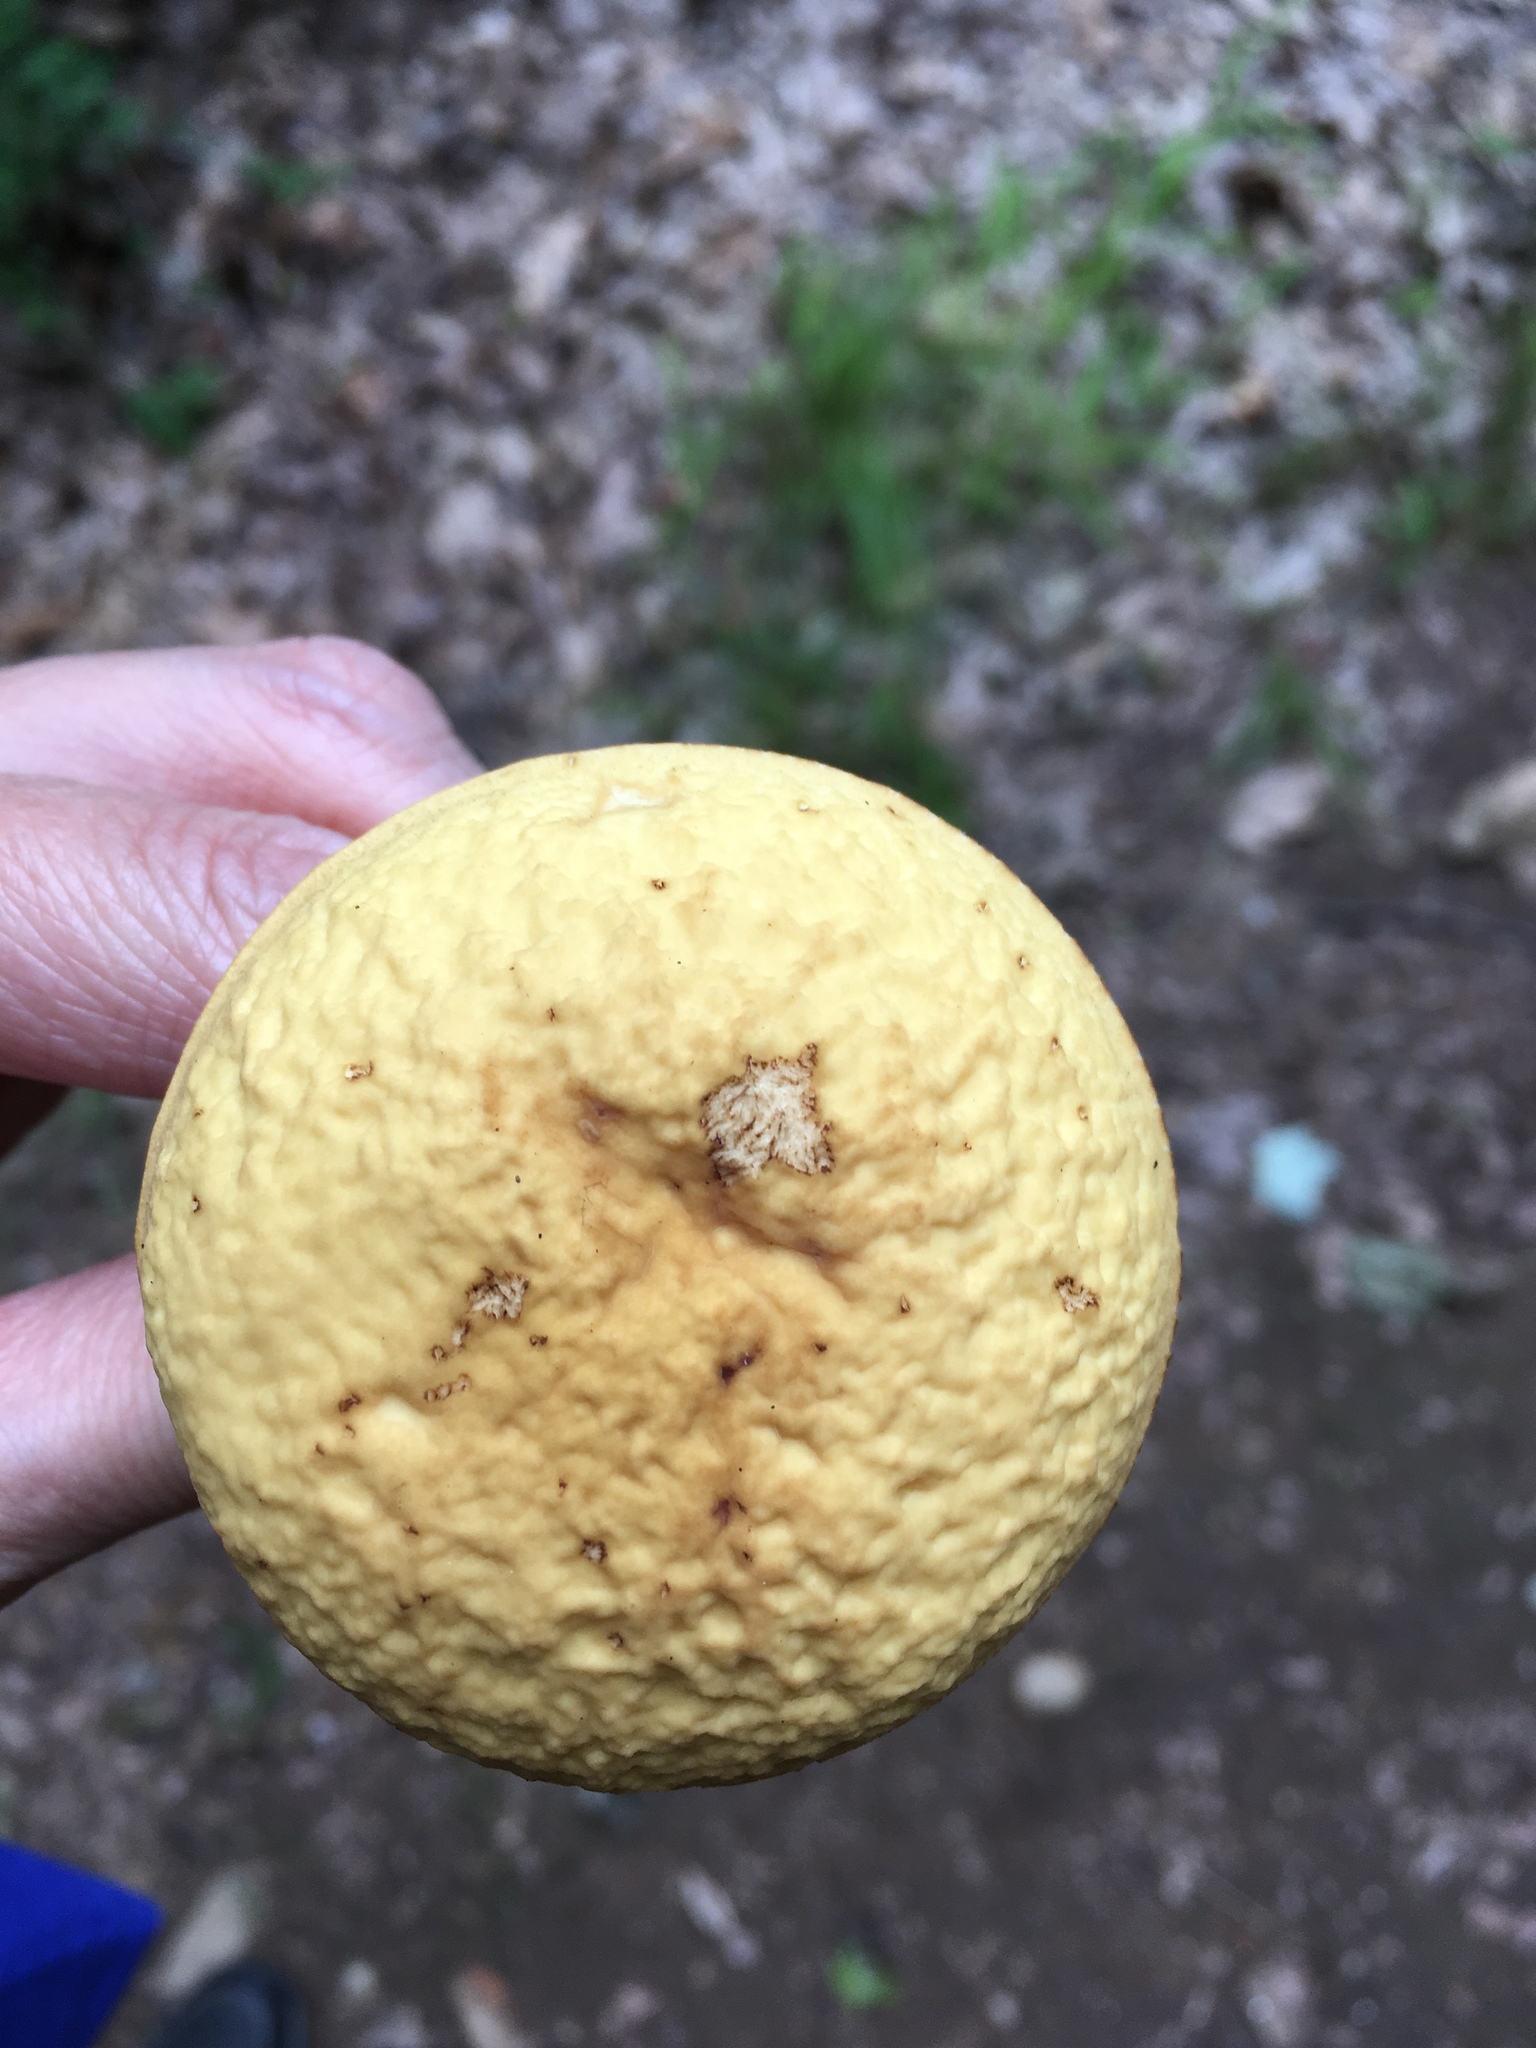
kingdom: Fungi
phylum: Basidiomycota
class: Agaricomycetes
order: Boletales
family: Boletaceae
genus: Hemileccinum
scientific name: Hemileccinum hortonii
